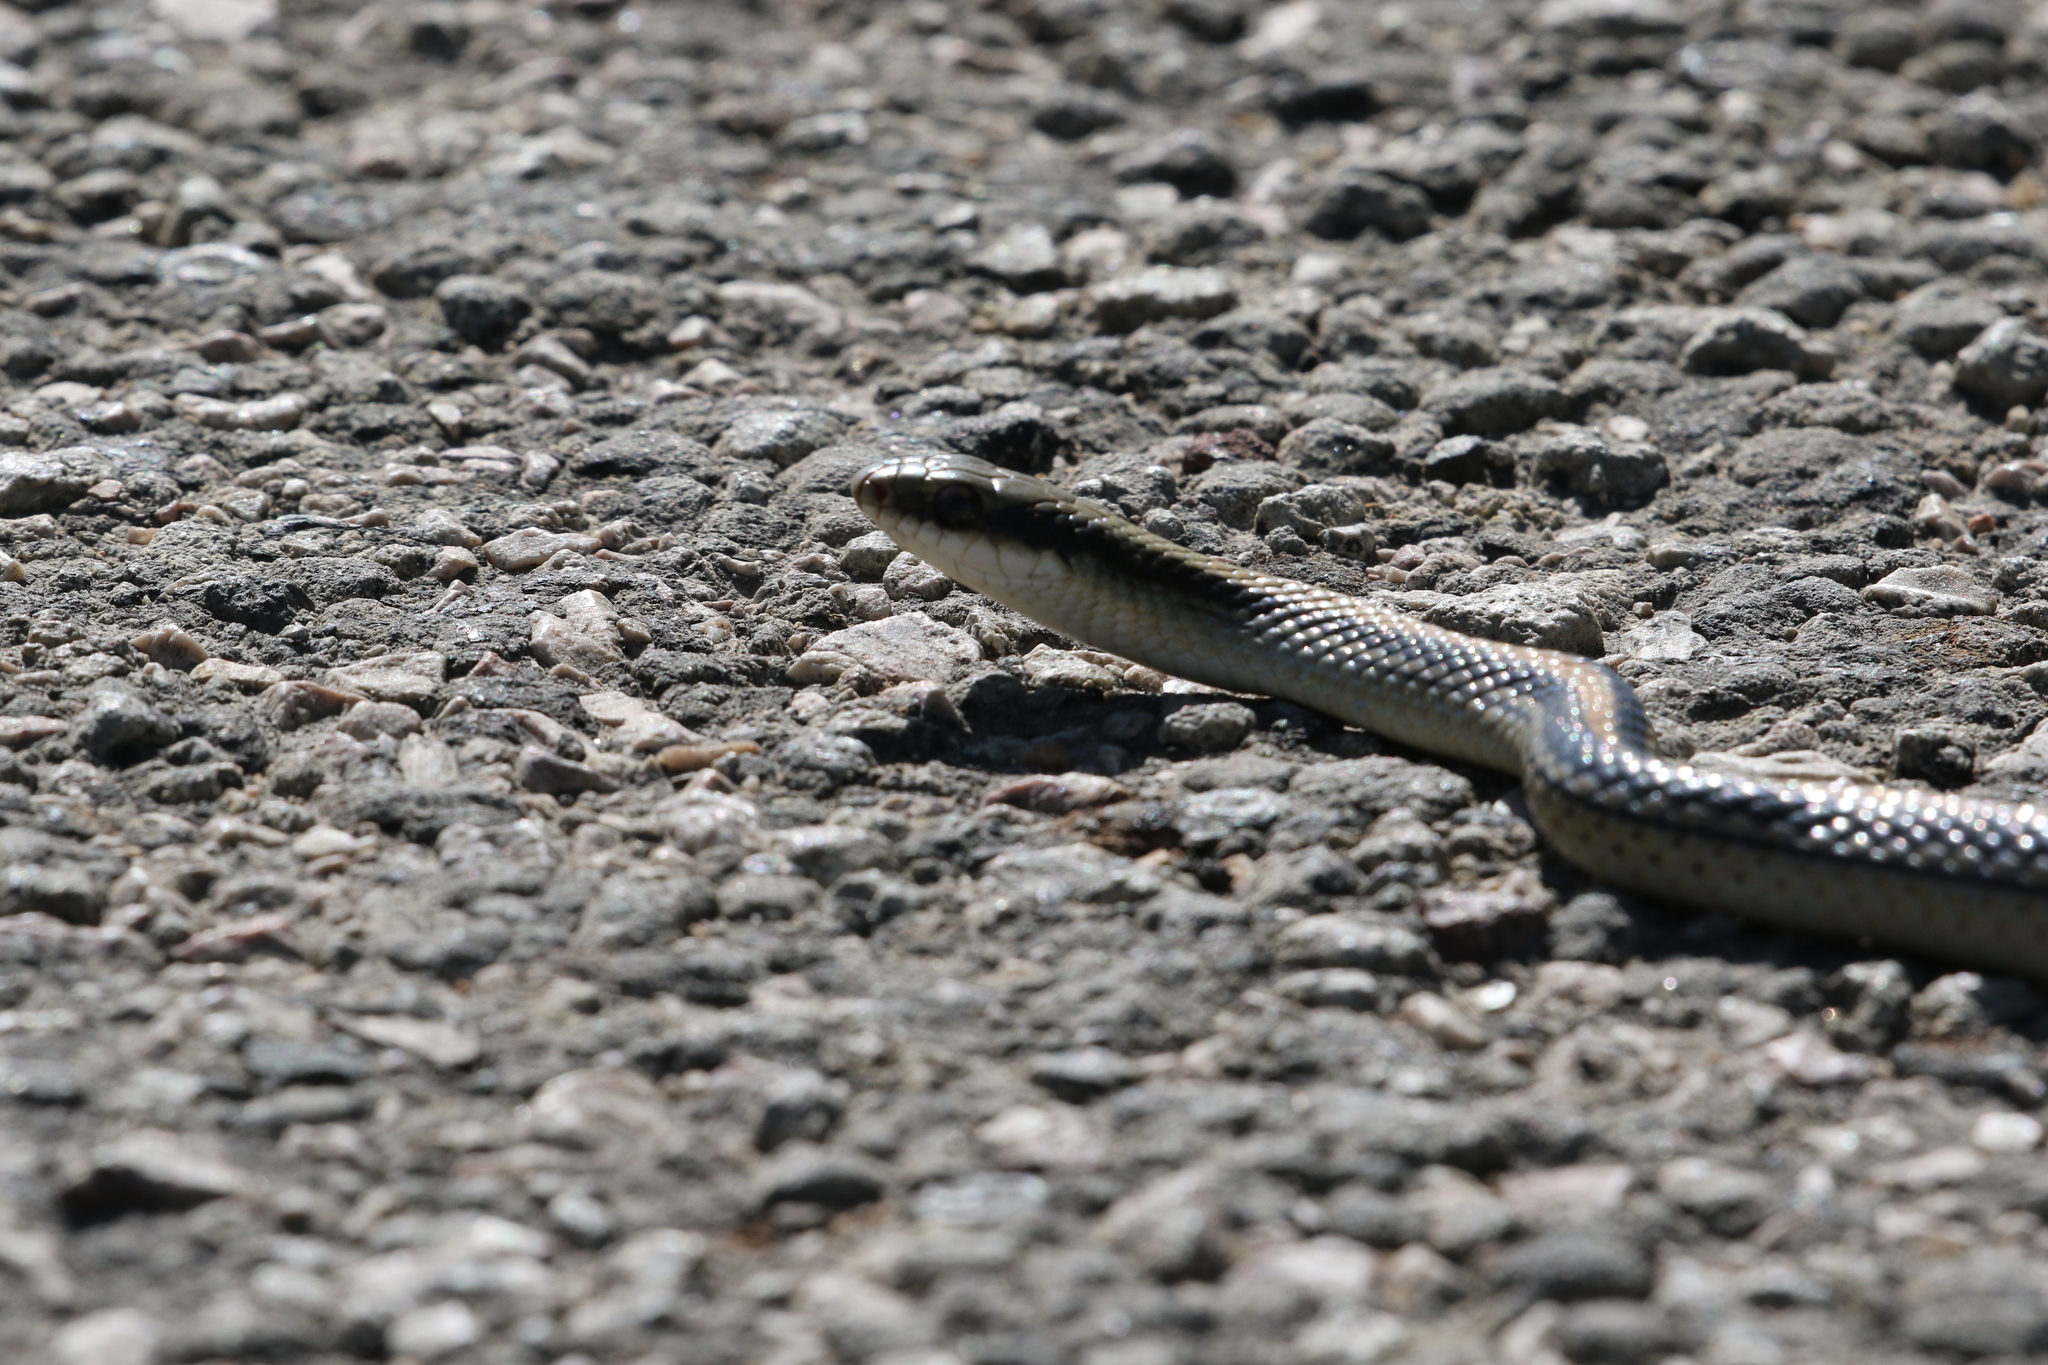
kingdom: Animalia
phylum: Chordata
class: Squamata
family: Colubridae
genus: Salvadora
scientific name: Salvadora lineata
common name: Texas patchnose snake
